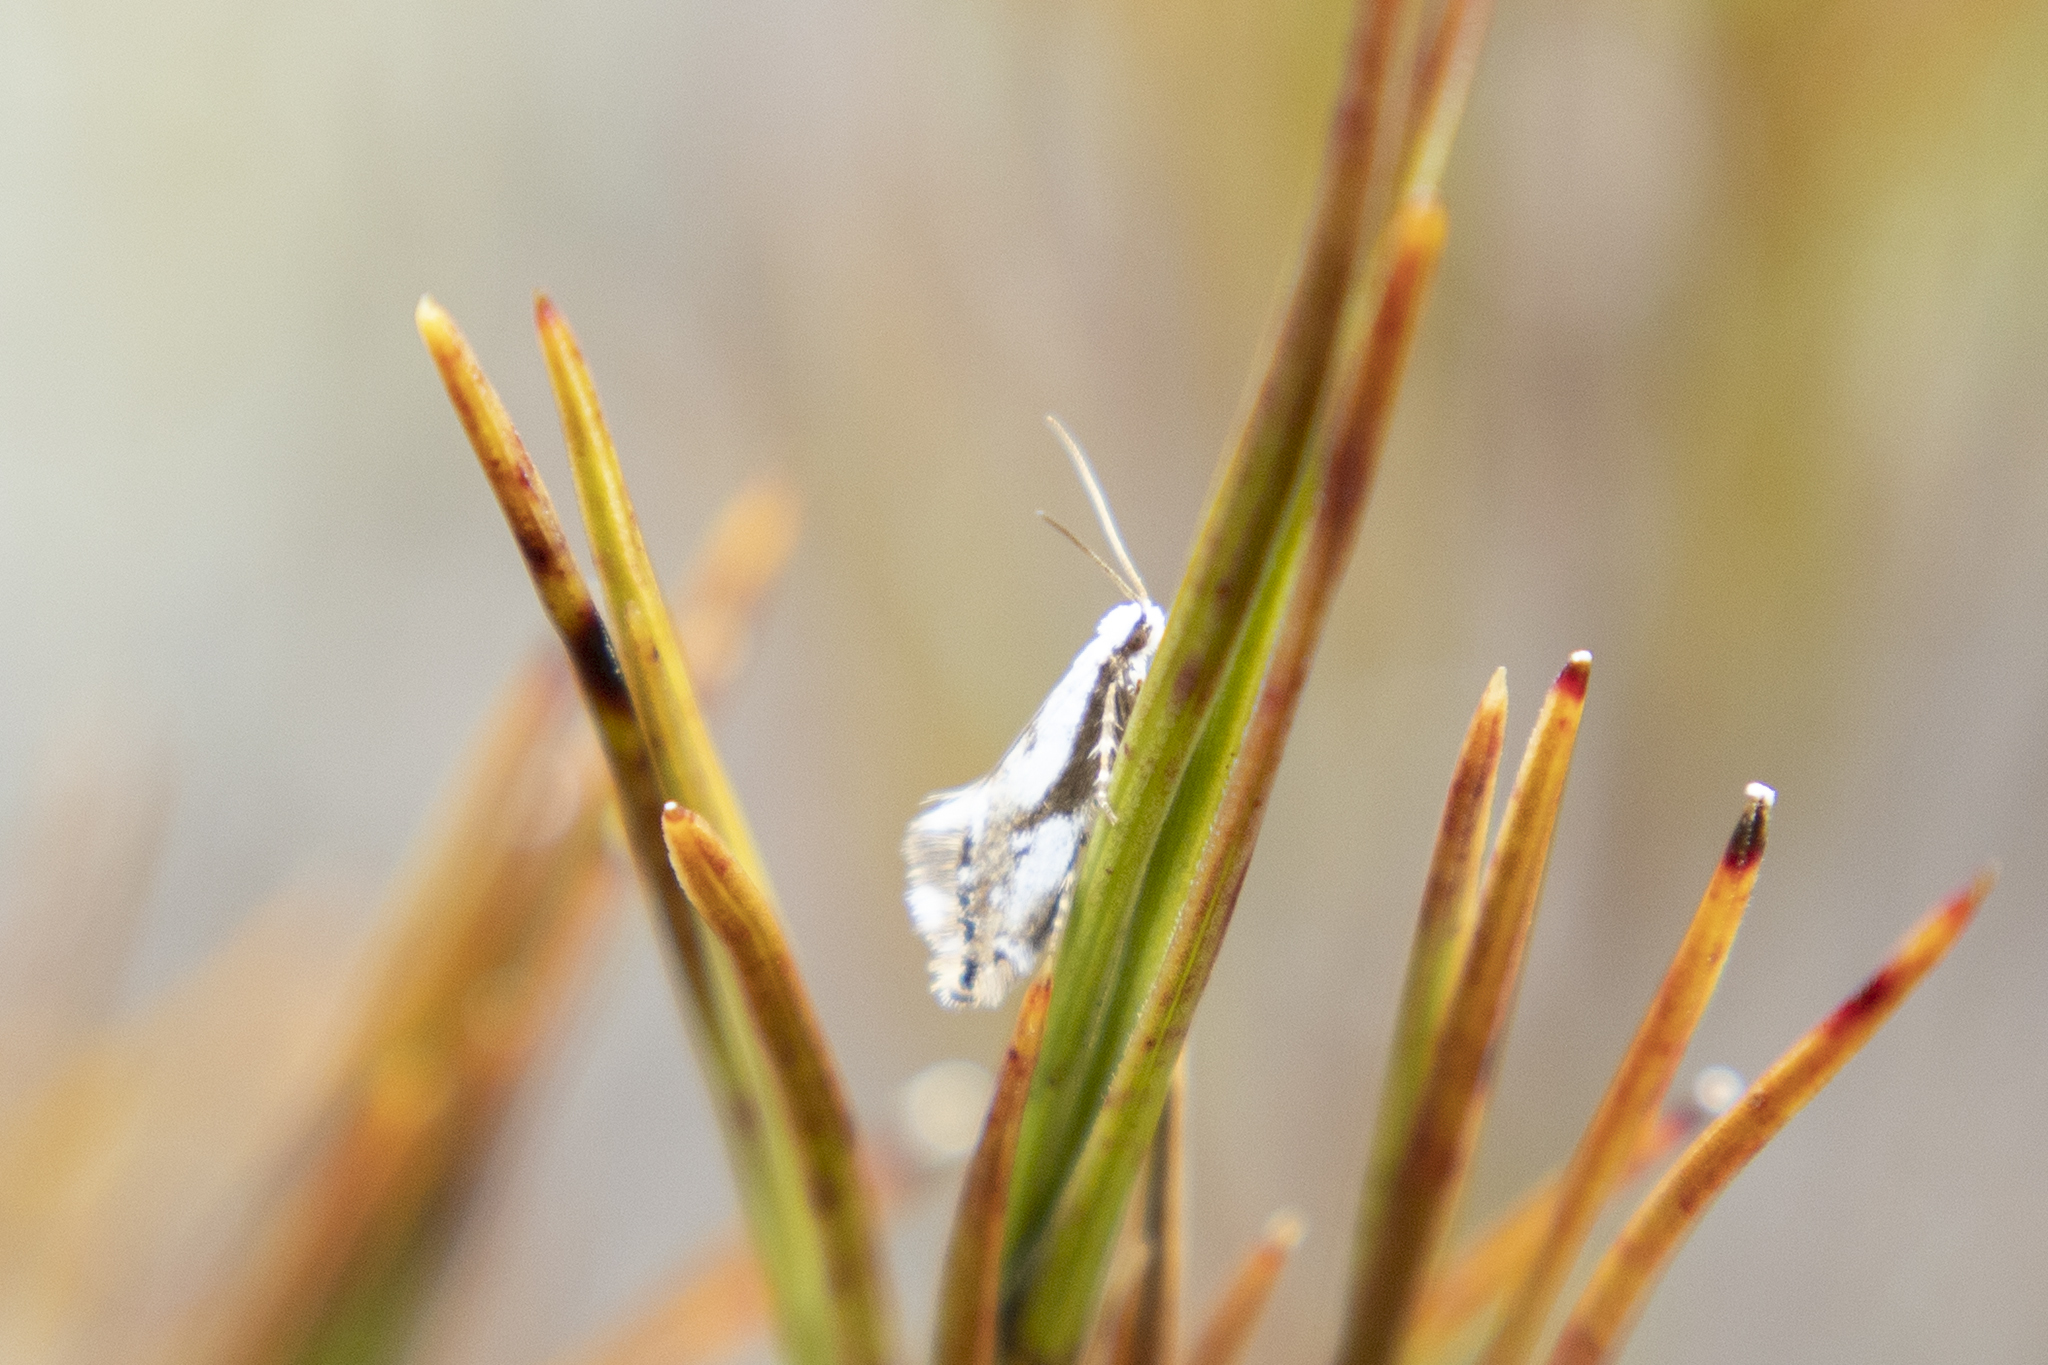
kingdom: Animalia
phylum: Arthropoda
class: Insecta
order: Lepidoptera
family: Mnesarchaeidae
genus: Mnesarchella
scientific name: Mnesarchella acuta
